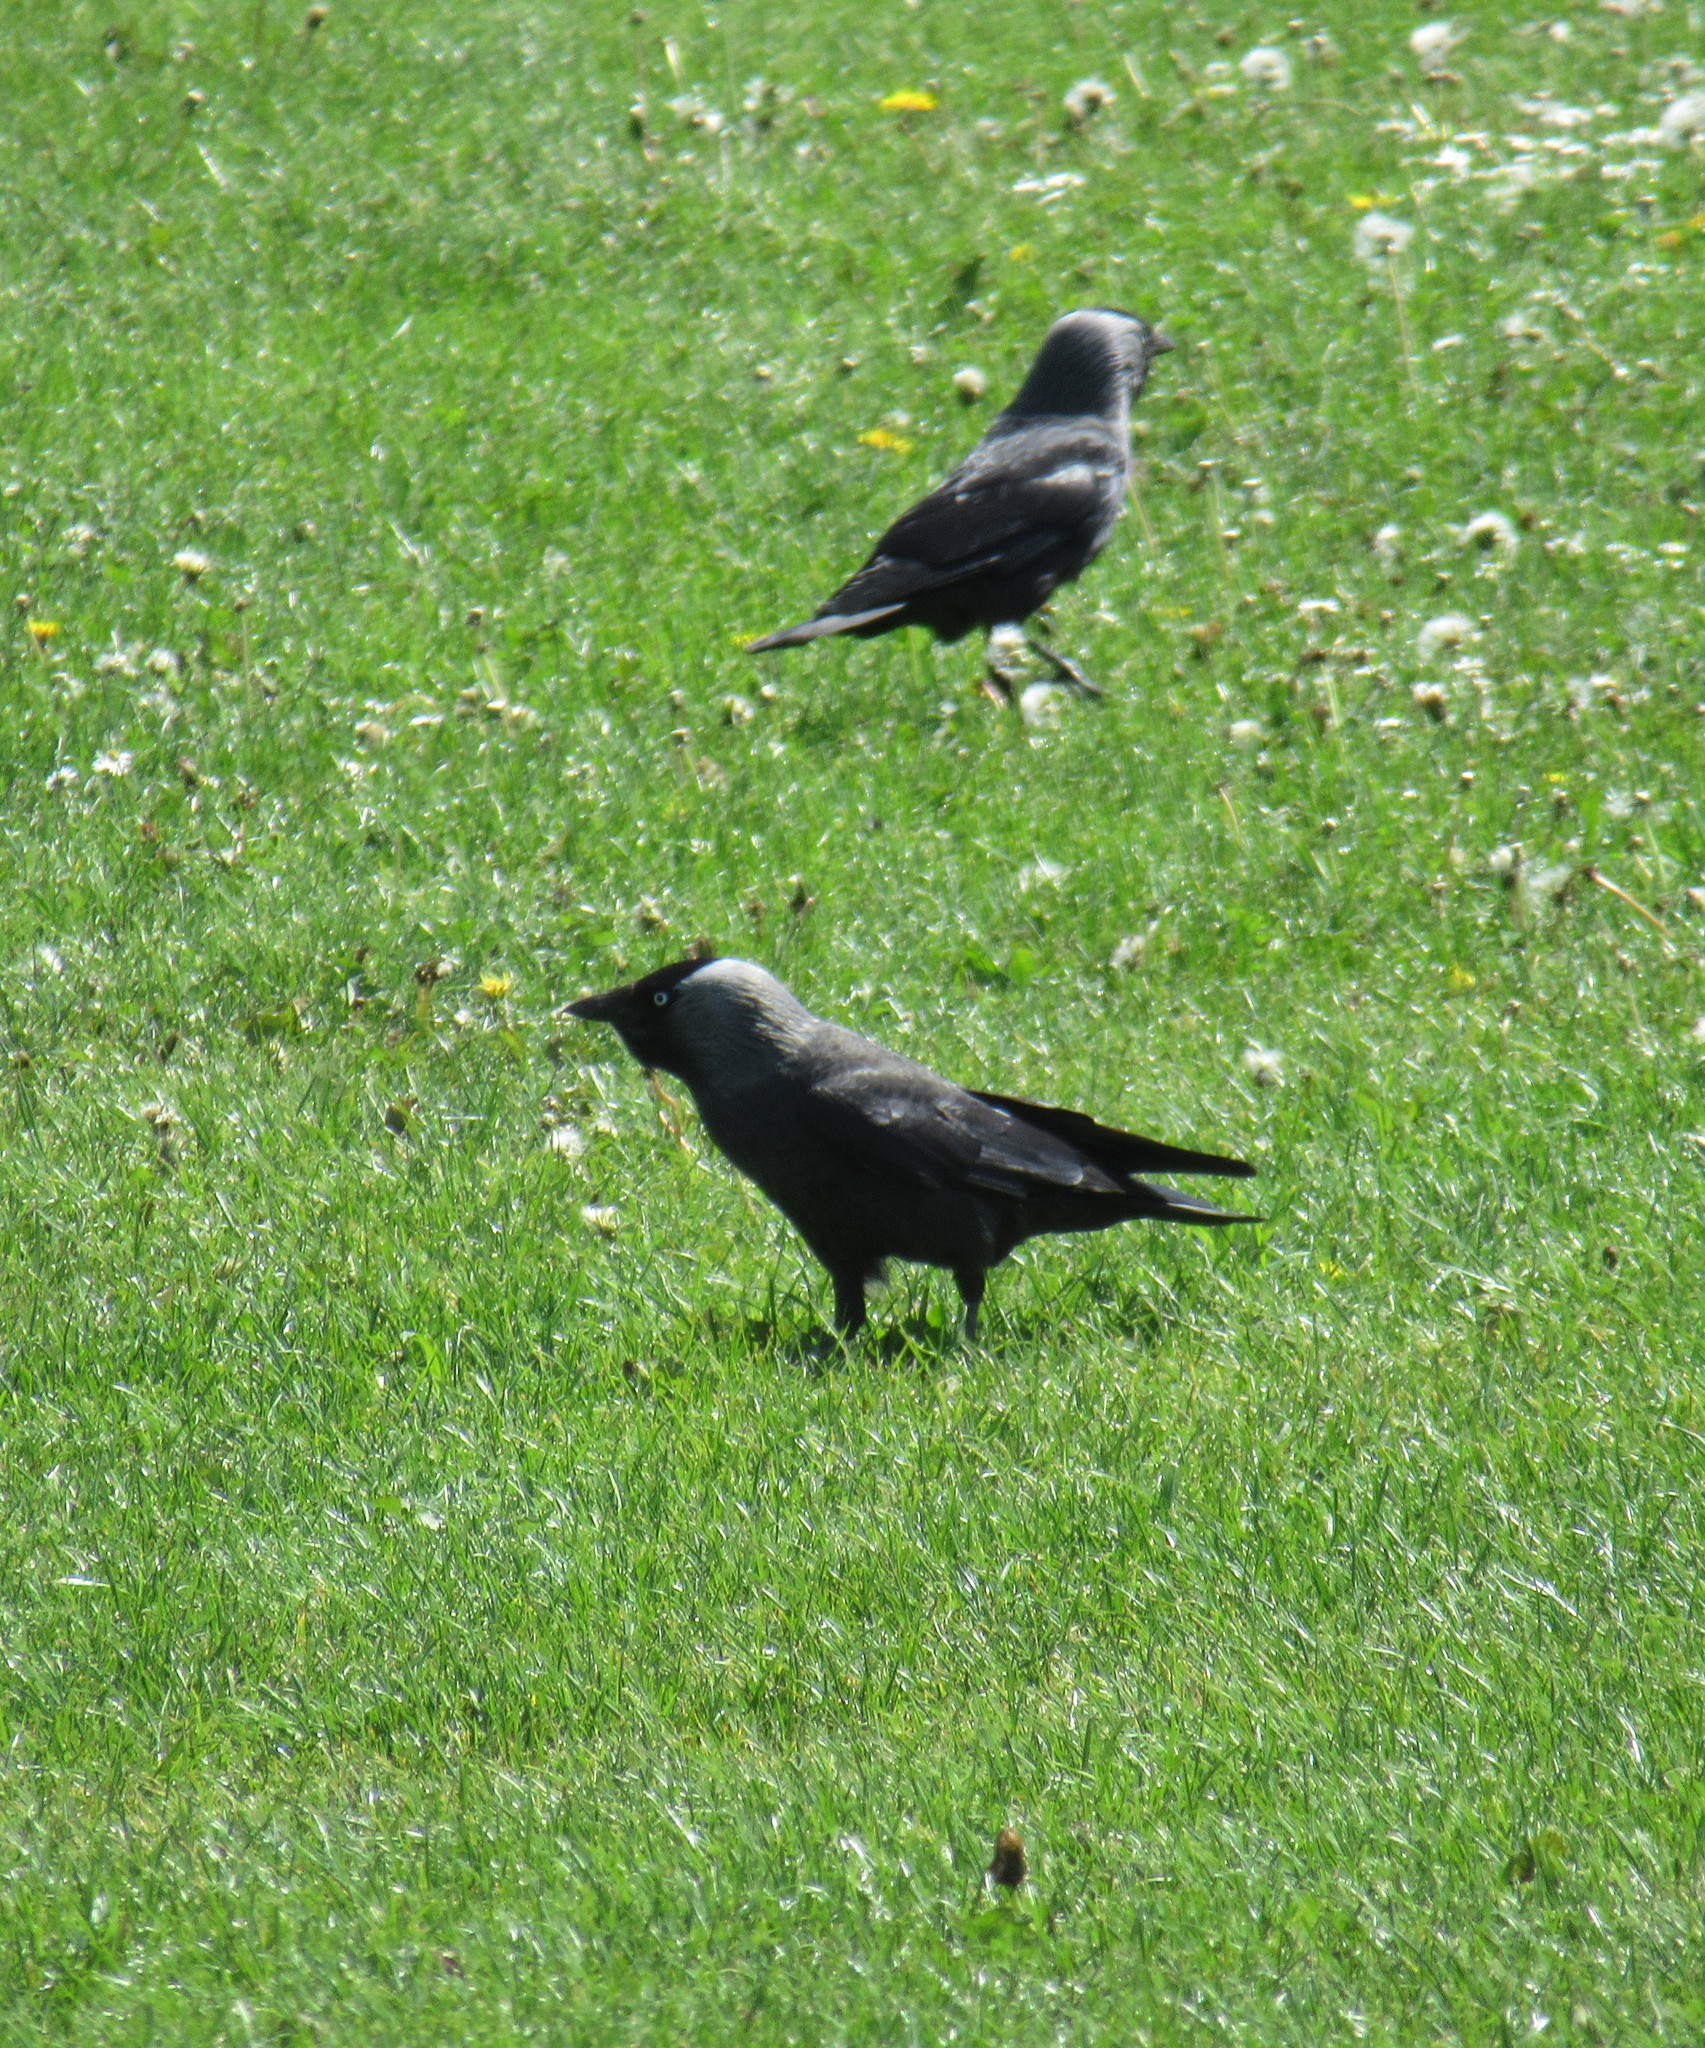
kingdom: Animalia
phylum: Chordata
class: Aves
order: Passeriformes
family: Corvidae
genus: Coloeus
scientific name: Coloeus monedula
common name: Western jackdaw
